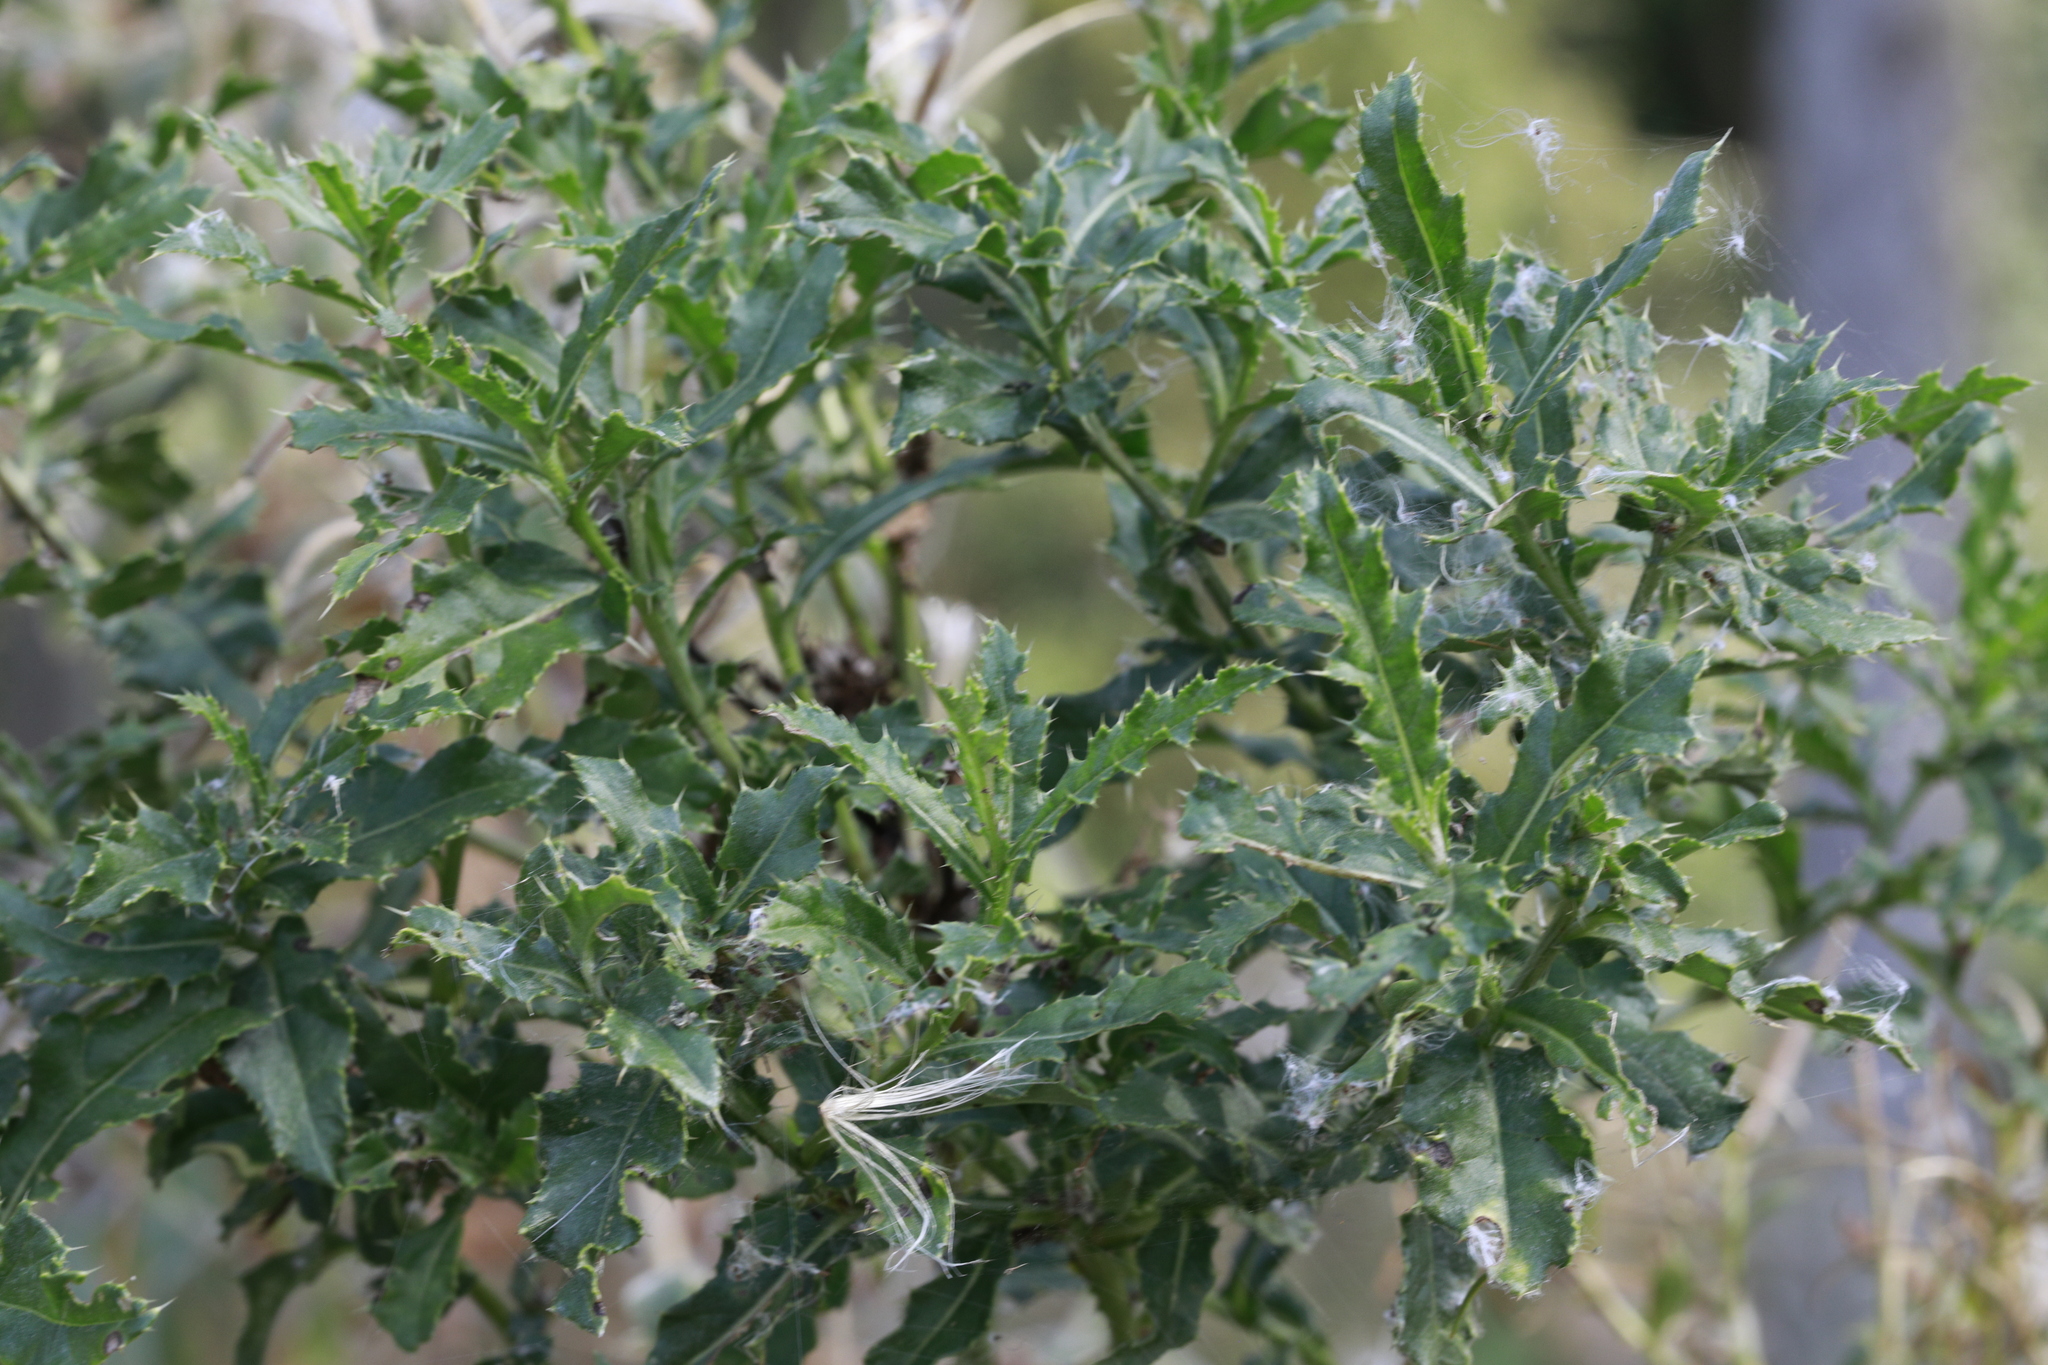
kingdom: Plantae
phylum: Tracheophyta
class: Magnoliopsida
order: Asterales
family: Asteraceae
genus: Cirsium
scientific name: Cirsium arvense
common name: Creeping thistle
